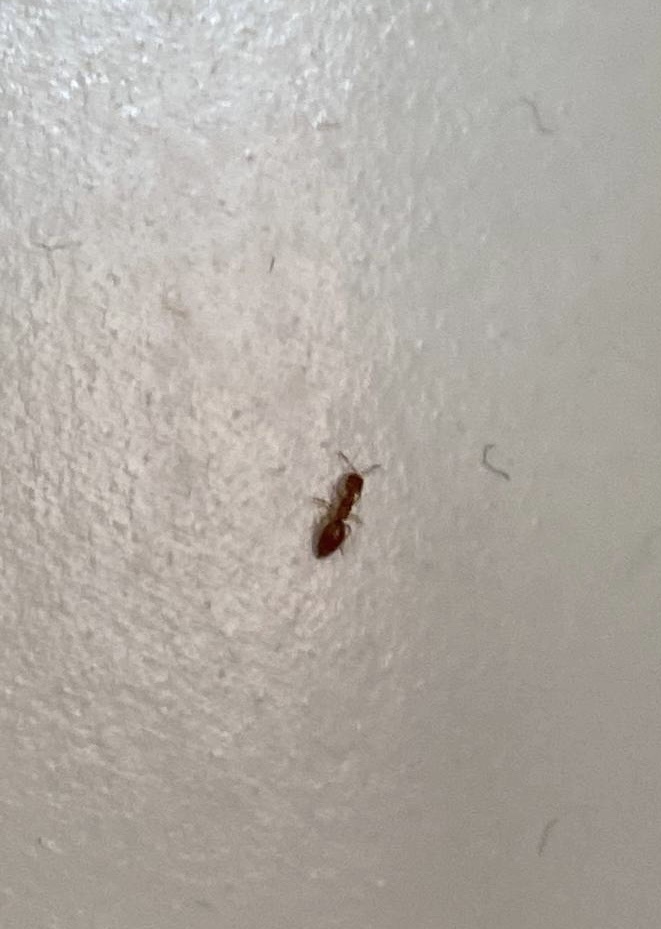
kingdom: Animalia
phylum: Arthropoda
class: Insecta
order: Hymenoptera
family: Bethylidae
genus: Cephalonomia
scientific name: Cephalonomia gallicola
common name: Parasitoid wasp
